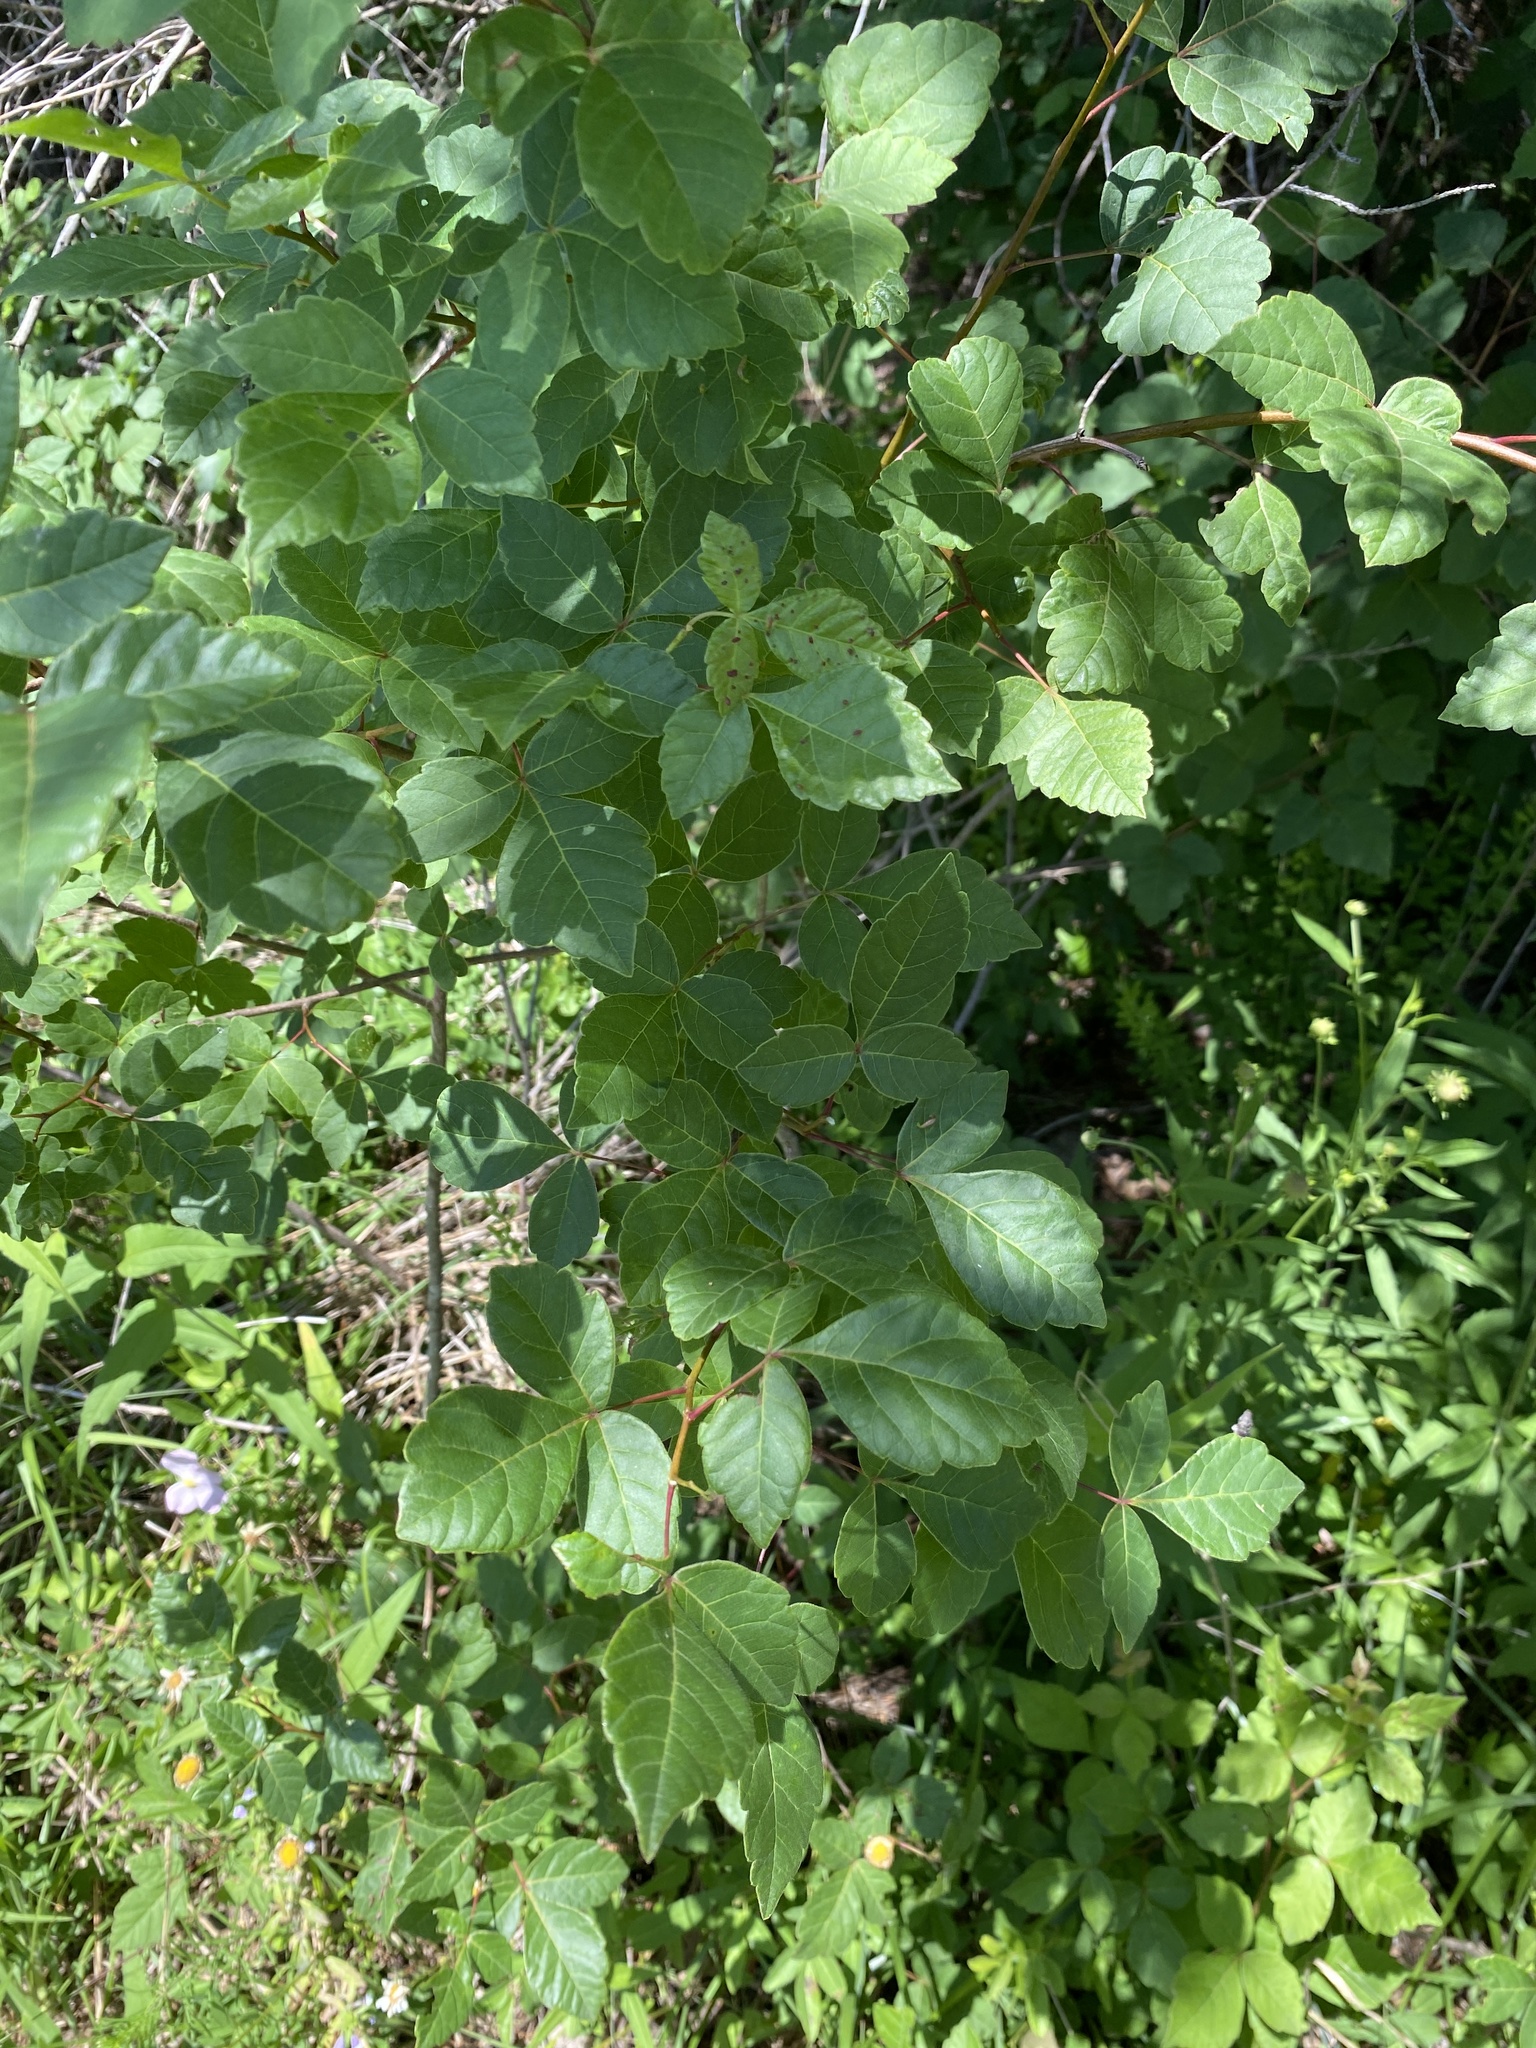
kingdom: Plantae
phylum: Tracheophyta
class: Magnoliopsida
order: Sapindales
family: Anacardiaceae
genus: Rhus
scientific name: Rhus aromatica
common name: Aromatic sumac
